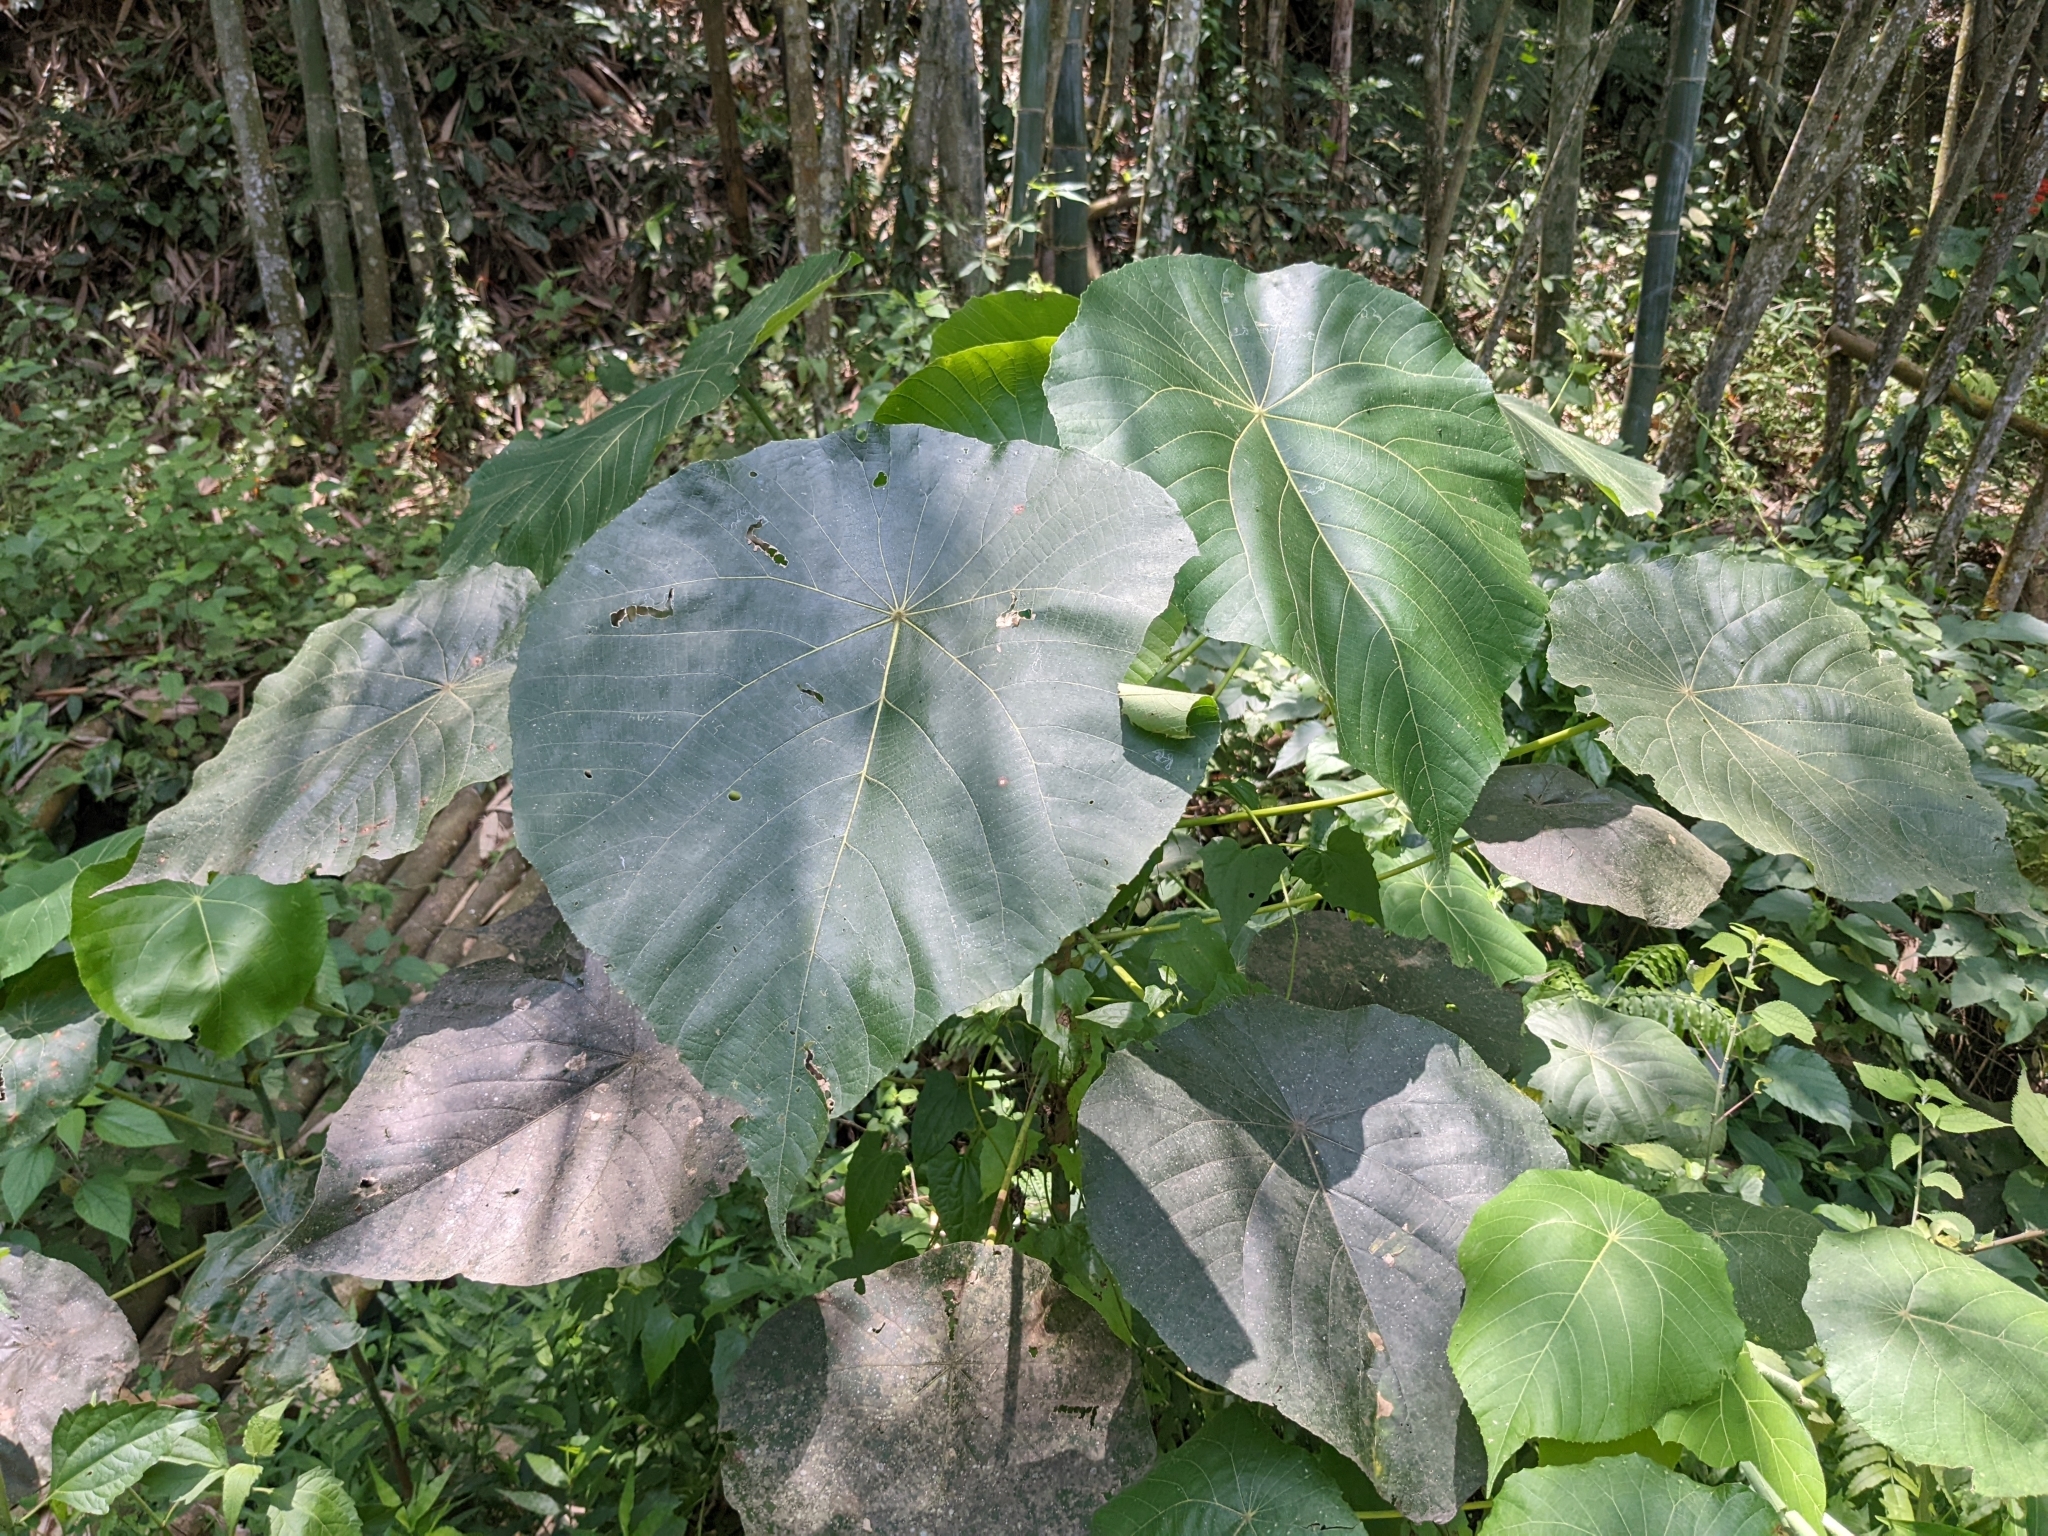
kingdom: Plantae
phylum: Tracheophyta
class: Magnoliopsida
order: Malpighiales
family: Euphorbiaceae
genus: Macaranga
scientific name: Macaranga tanarius
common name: Parasol leaf tree
